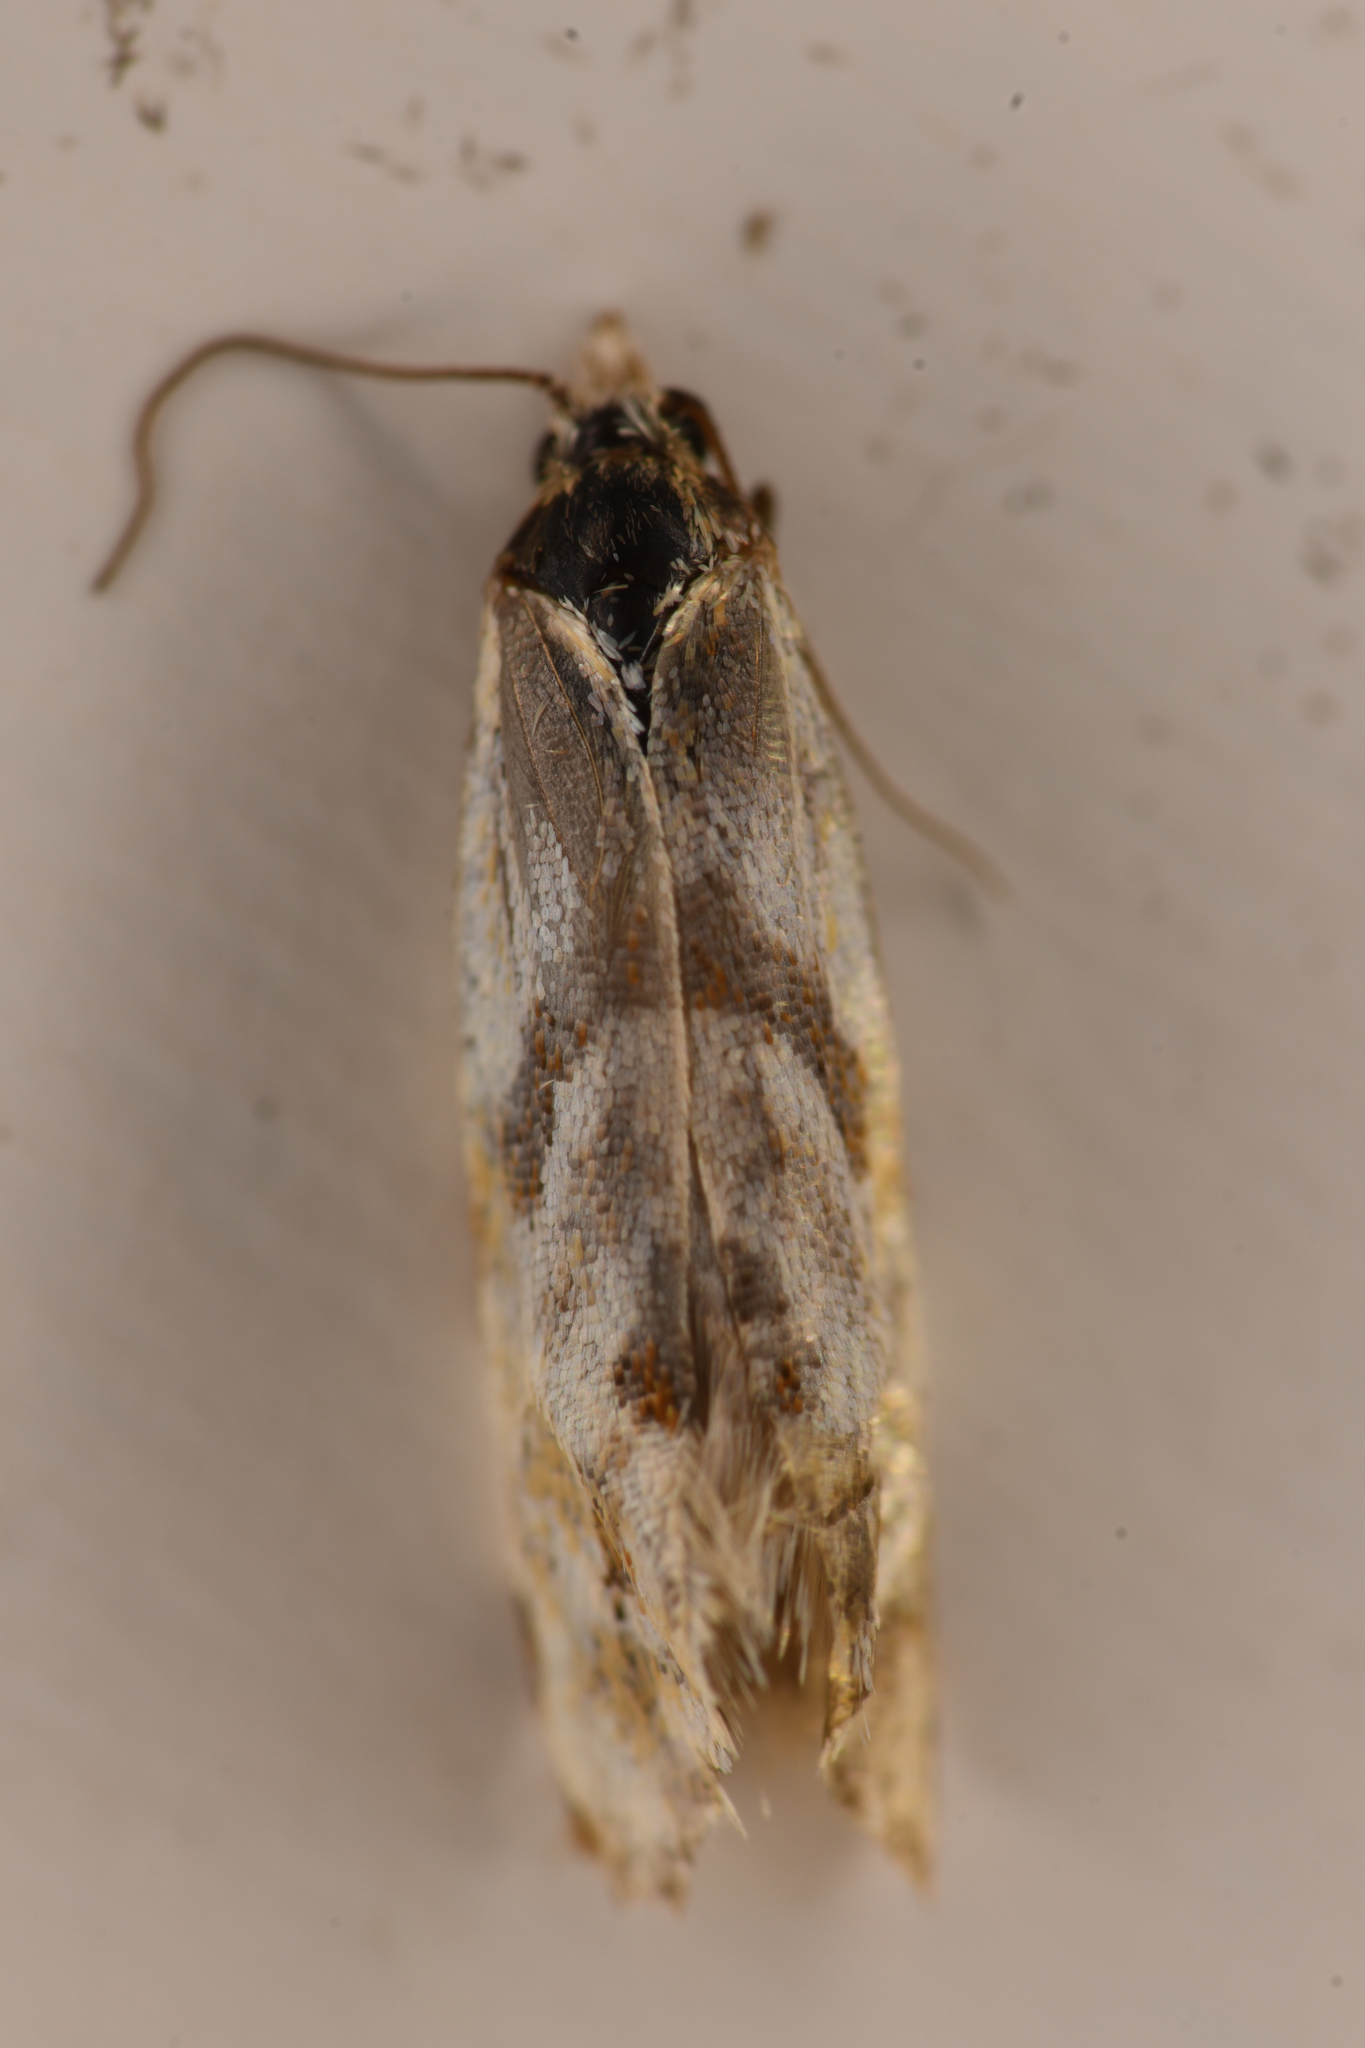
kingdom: Animalia
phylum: Arthropoda
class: Insecta
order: Lepidoptera
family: Tortricidae
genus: Aethes
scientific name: Aethes smeathmanniana
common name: Yarrow conch
